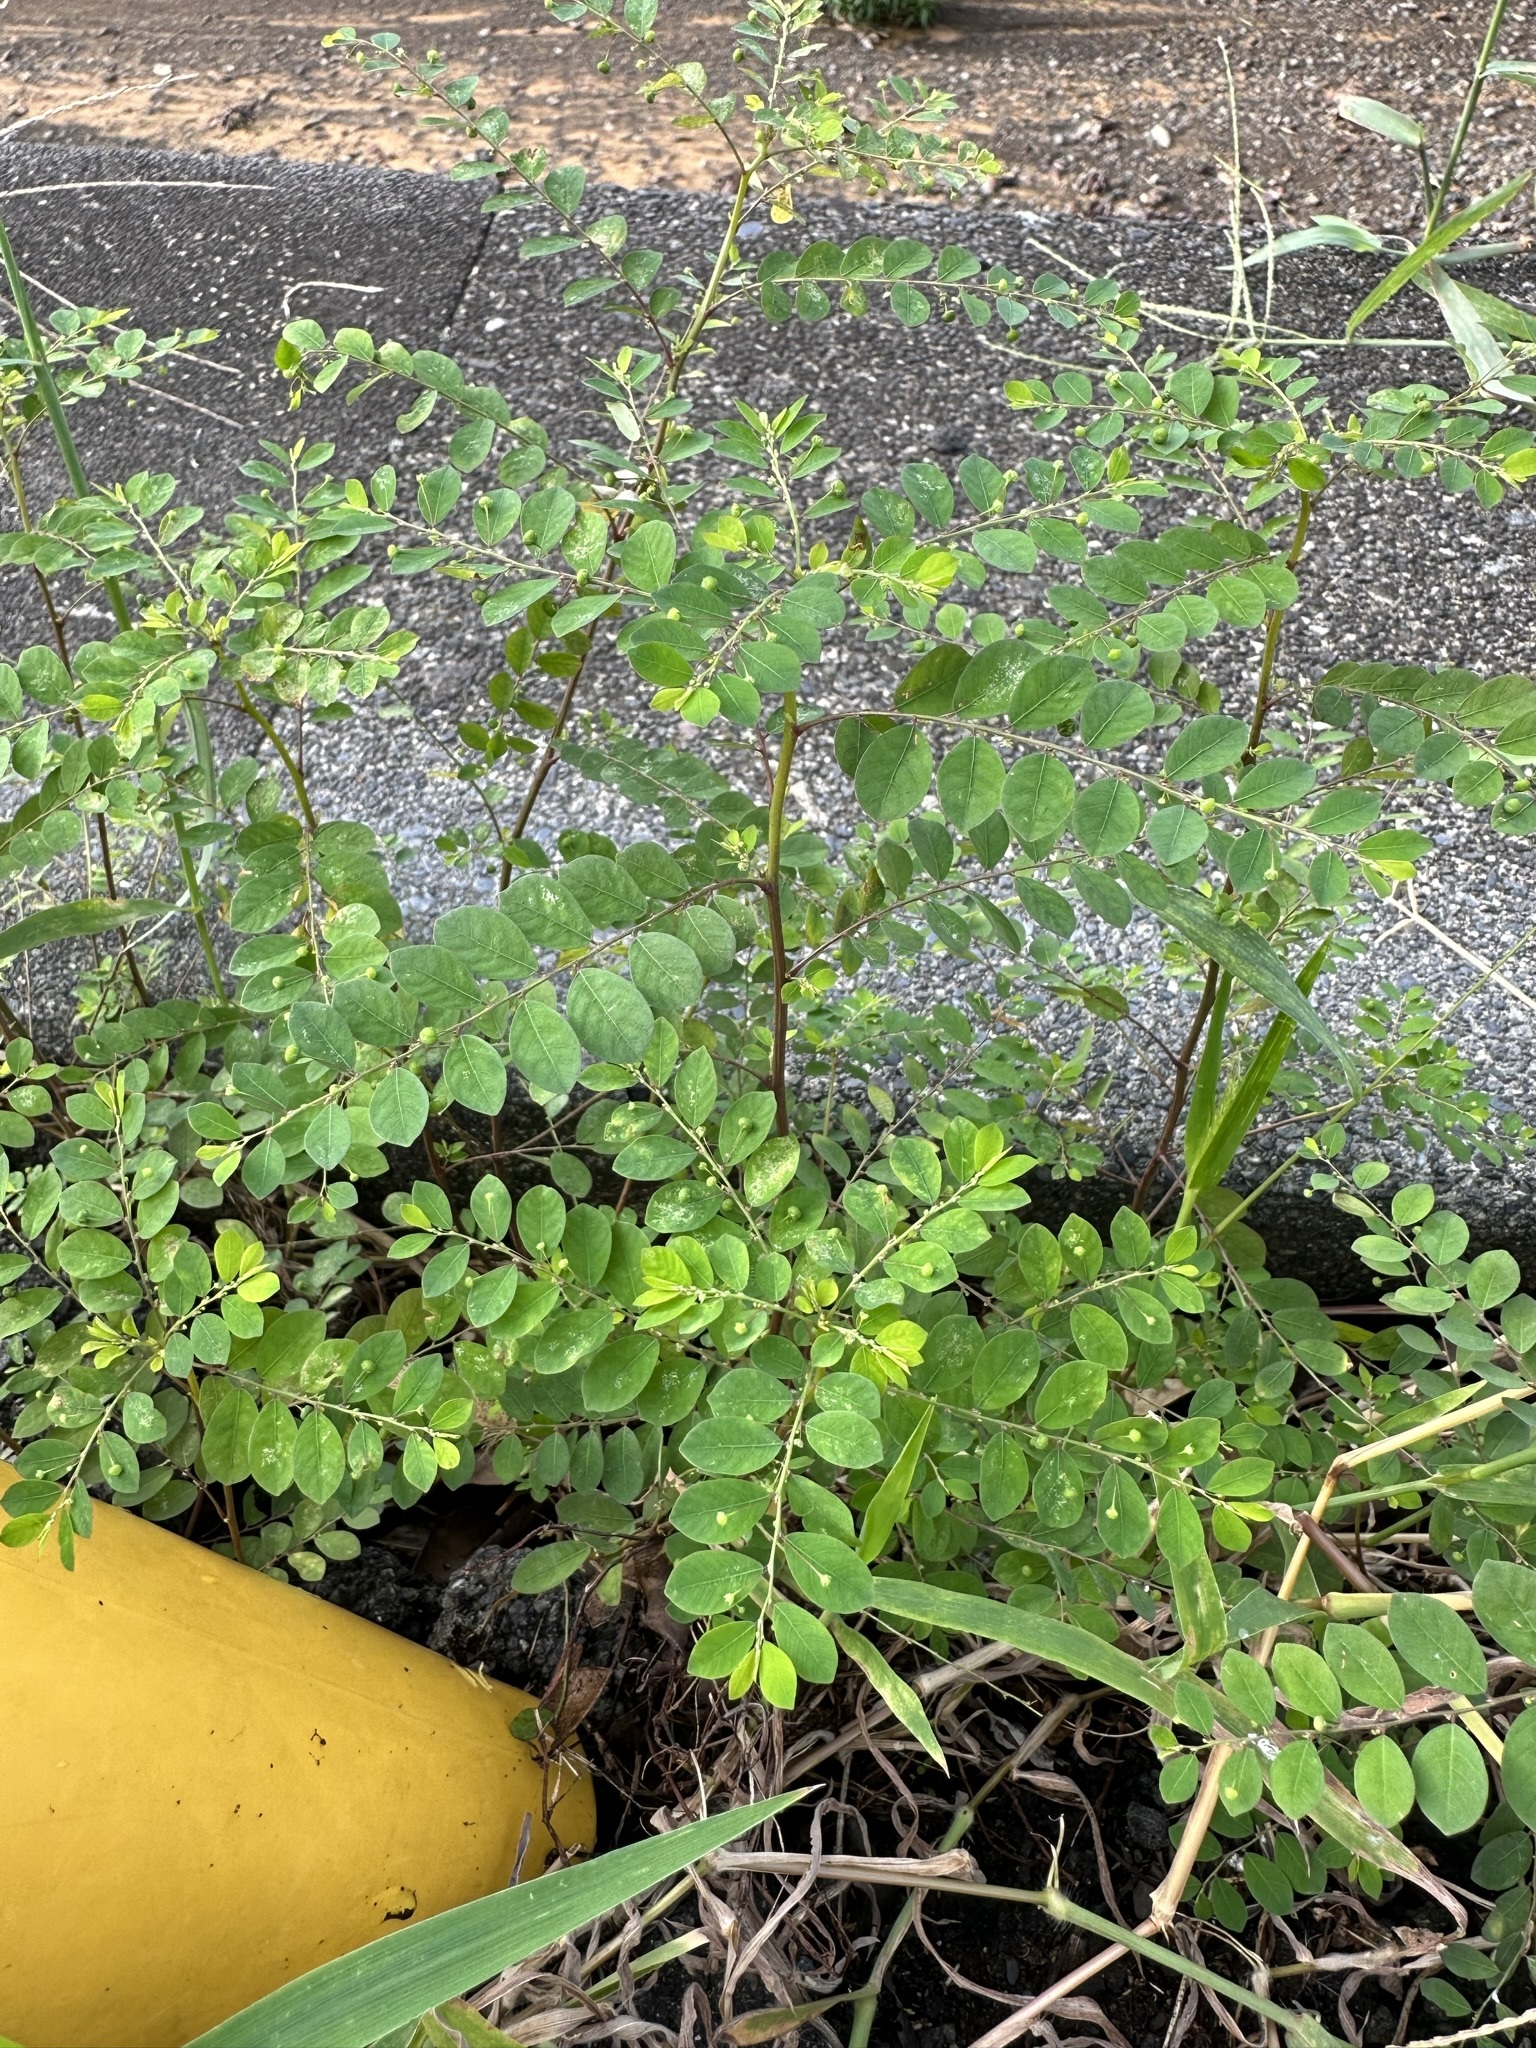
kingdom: Plantae
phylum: Tracheophyta
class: Magnoliopsida
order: Malpighiales
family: Phyllanthaceae
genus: Phyllanthus
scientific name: Phyllanthus tenellus
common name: Mascarene island leaf-flower
